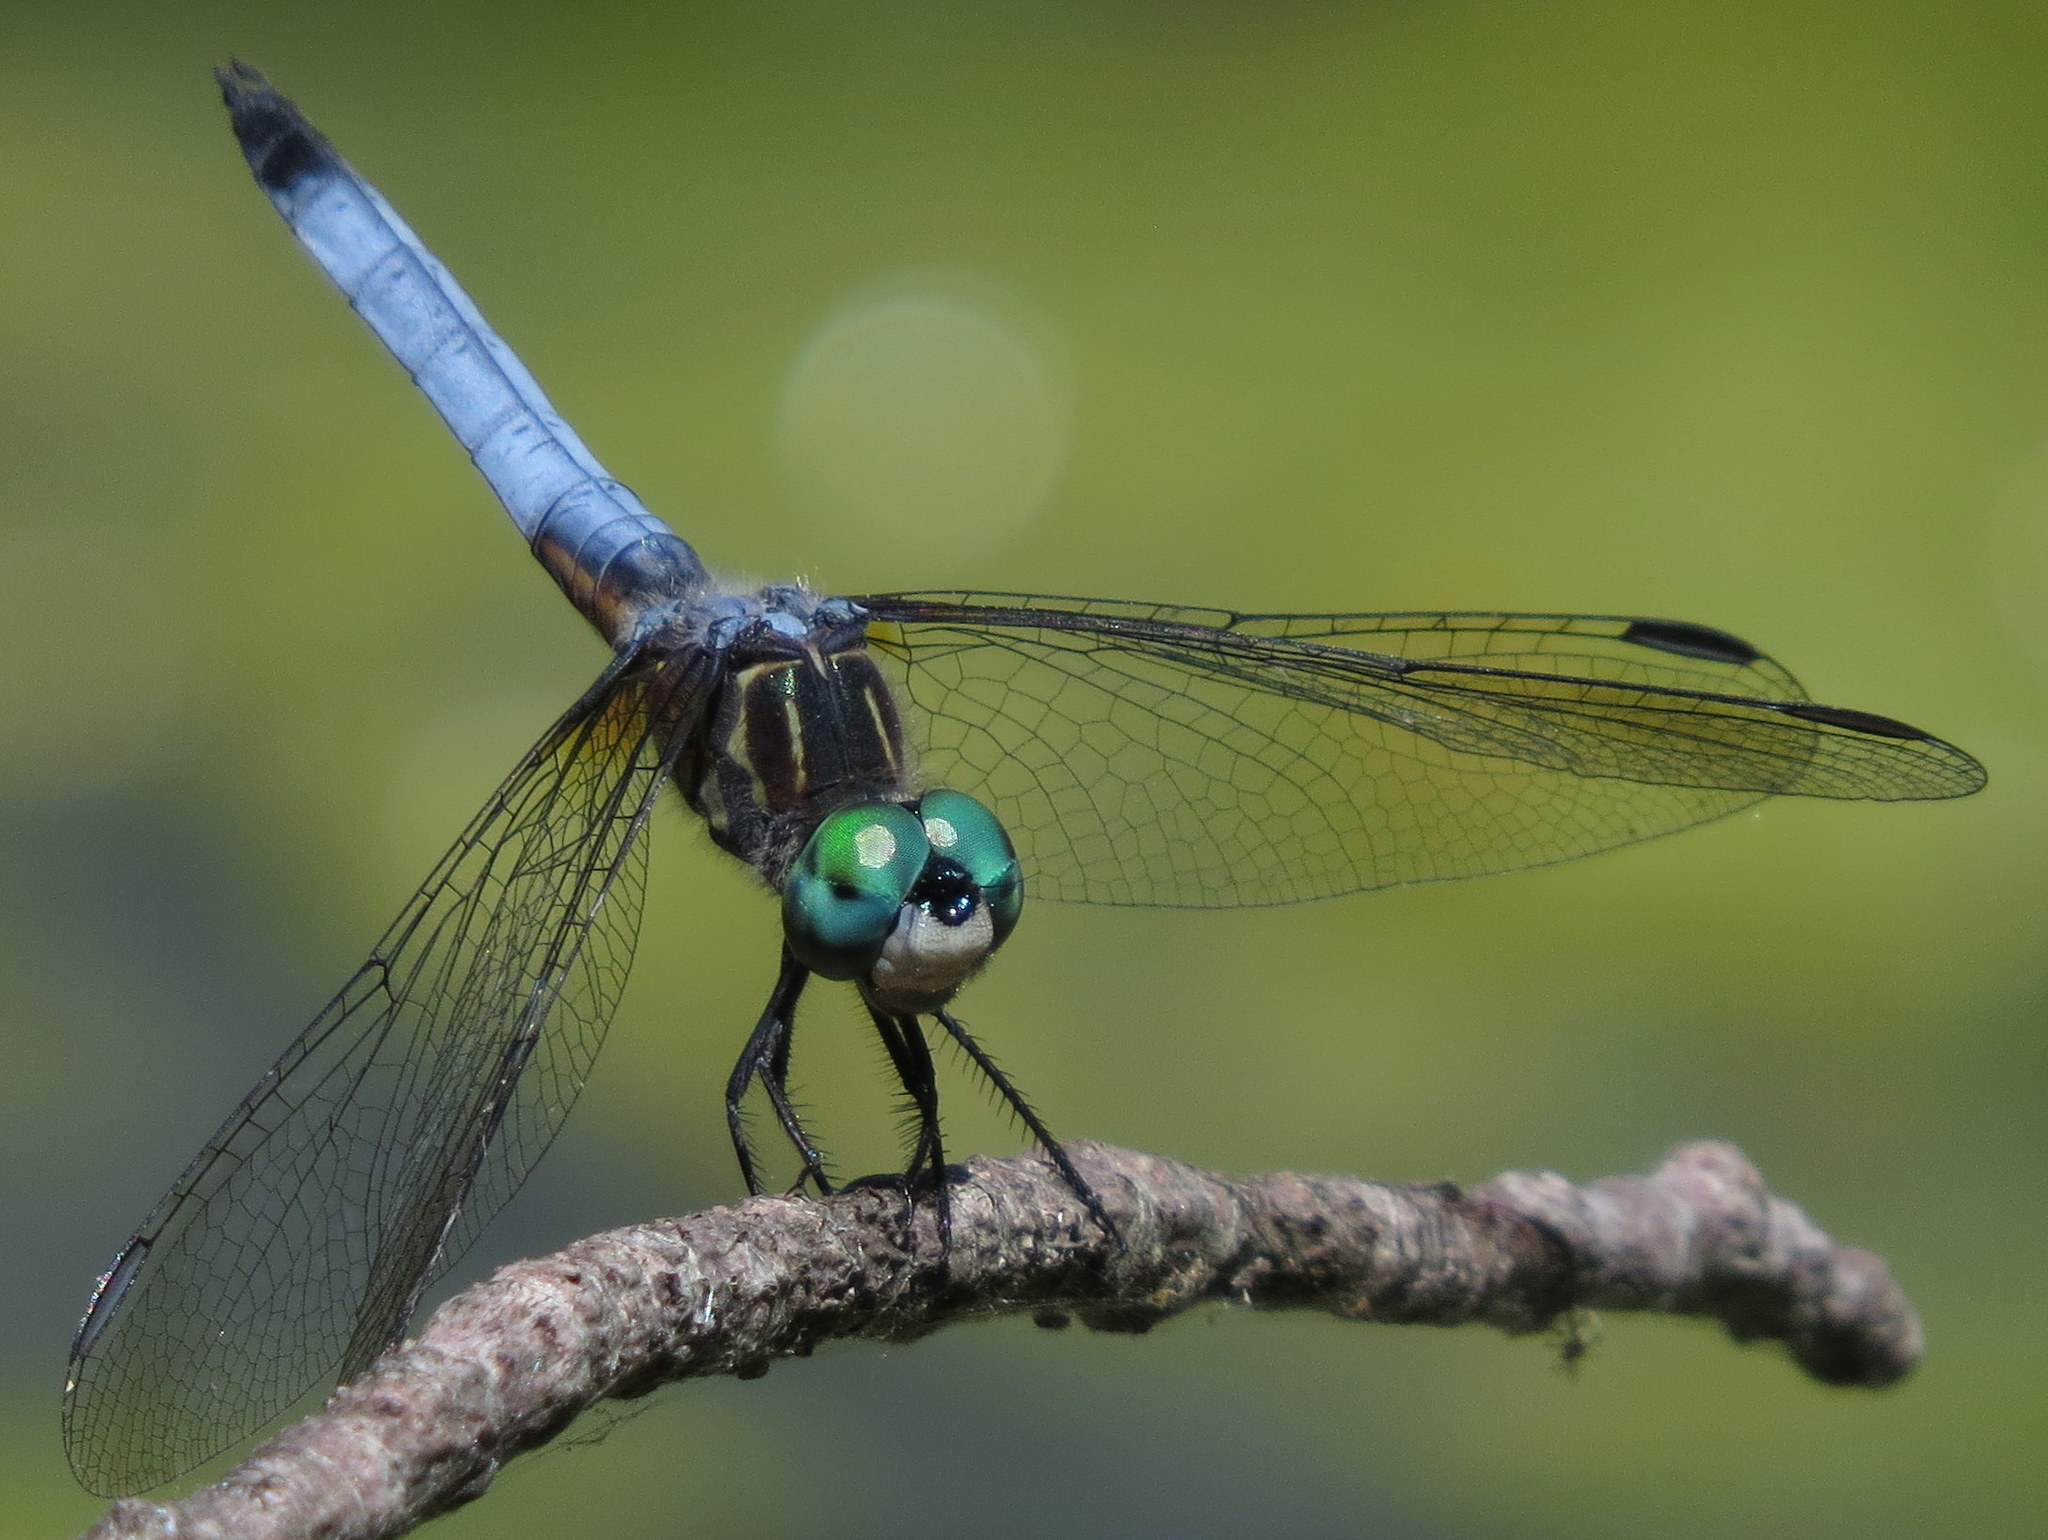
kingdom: Animalia
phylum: Arthropoda
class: Insecta
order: Odonata
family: Libellulidae
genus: Pachydiplax
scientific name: Pachydiplax longipennis
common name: Blue dasher
